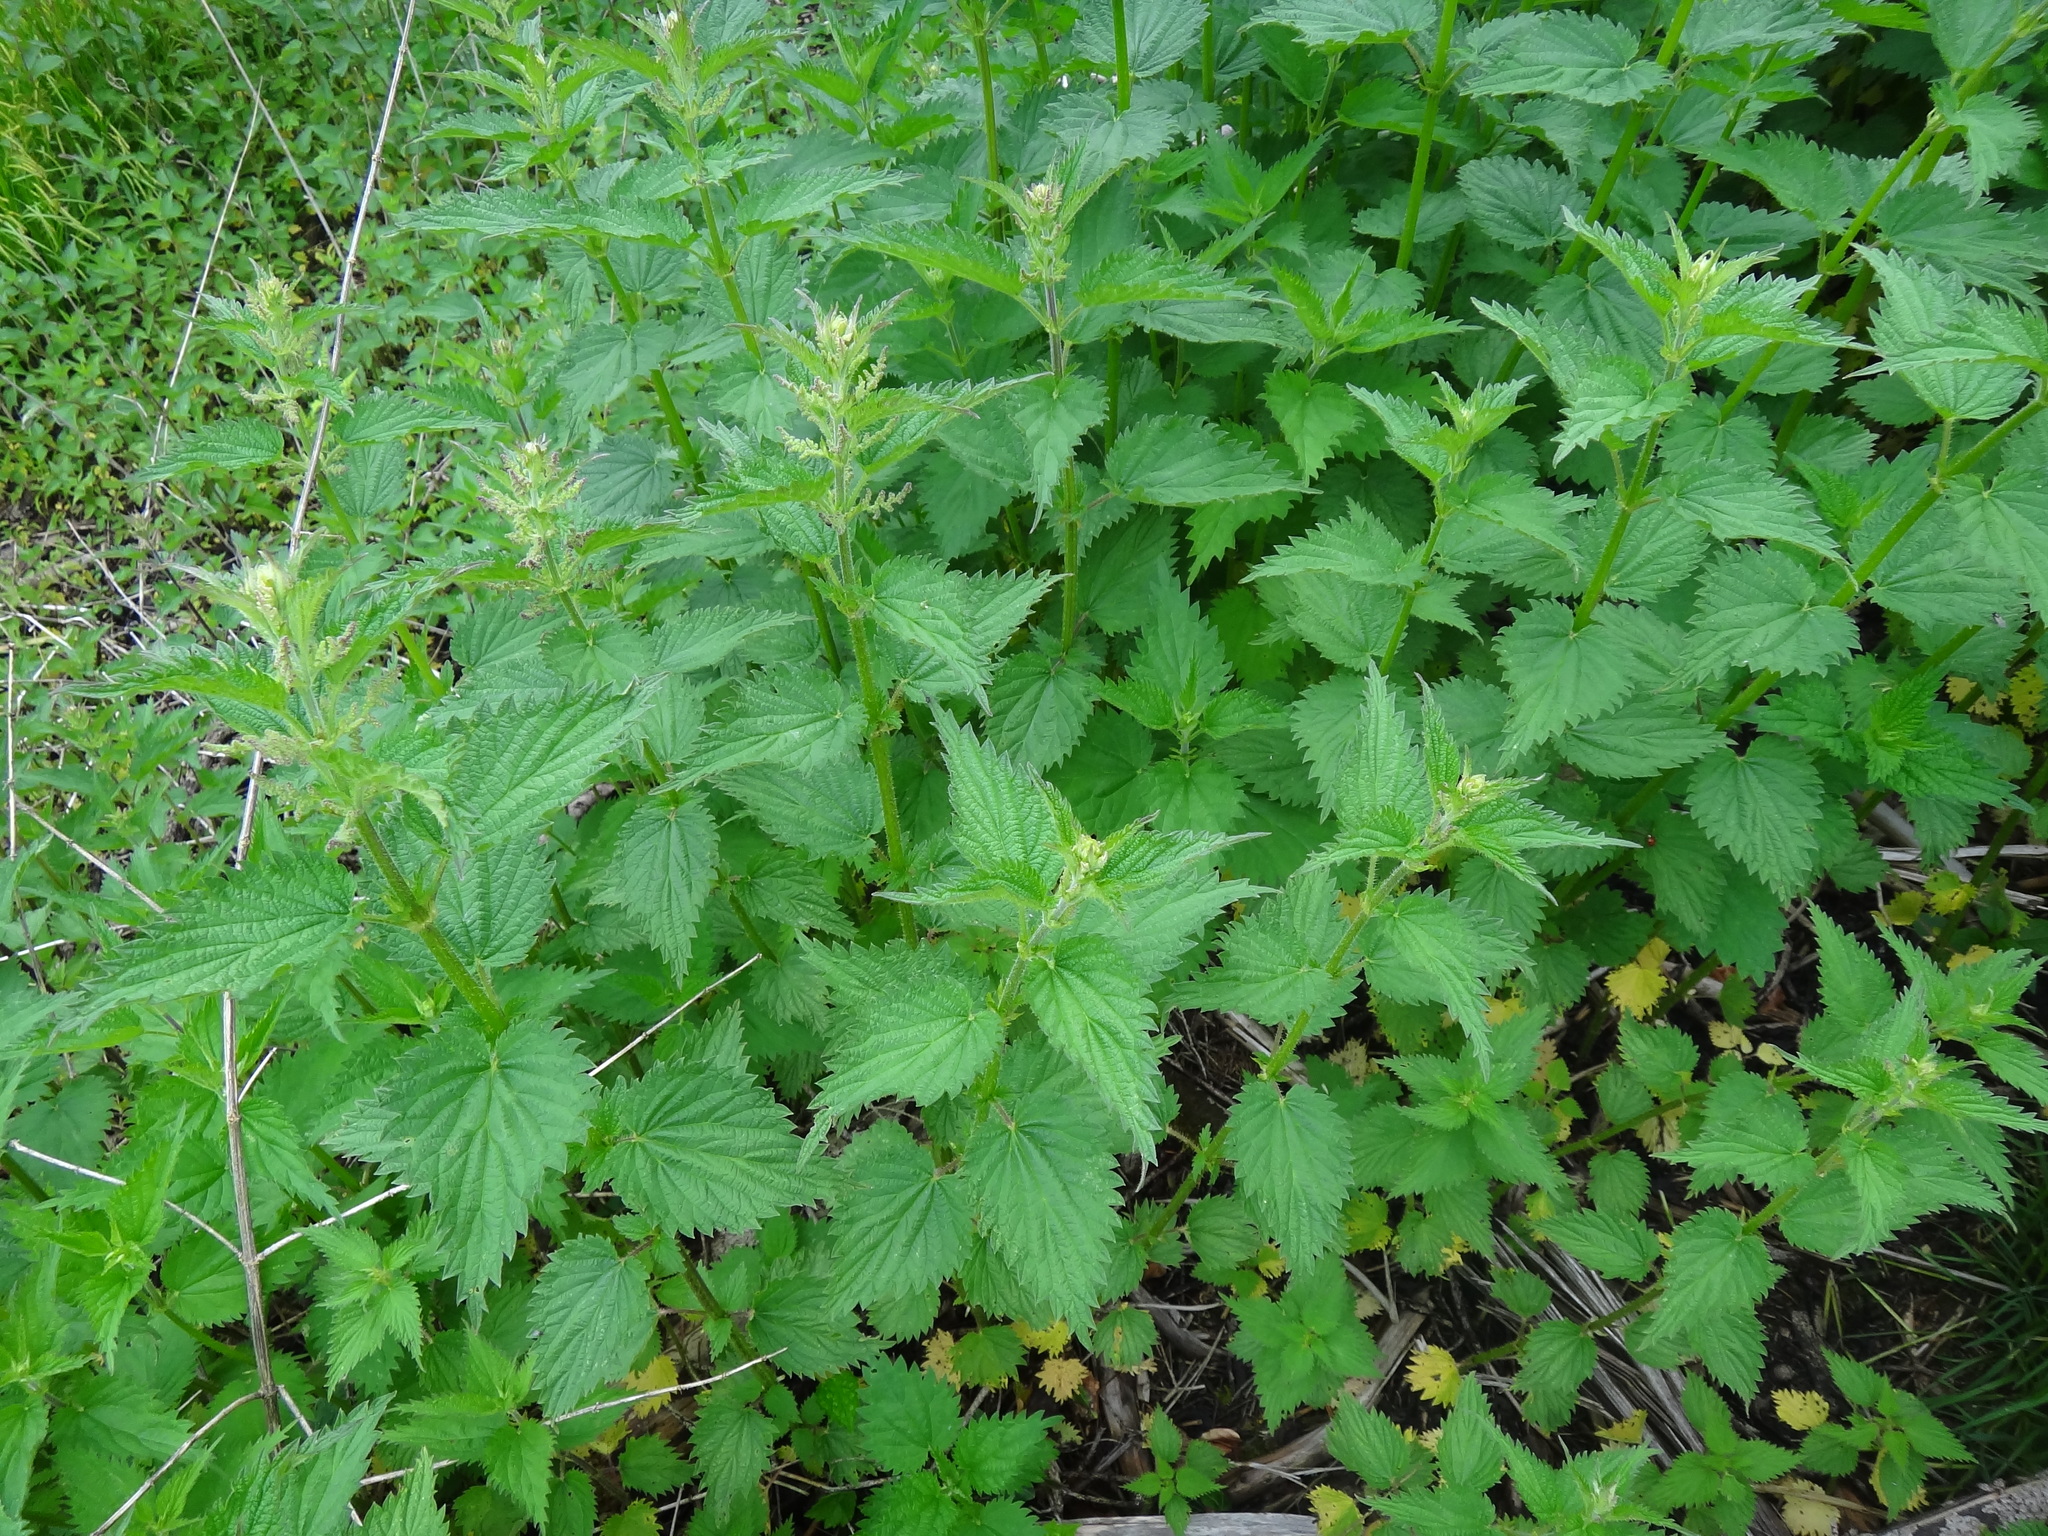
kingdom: Plantae
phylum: Tracheophyta
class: Magnoliopsida
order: Rosales
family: Urticaceae
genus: Urtica
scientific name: Urtica dioica
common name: Common nettle
